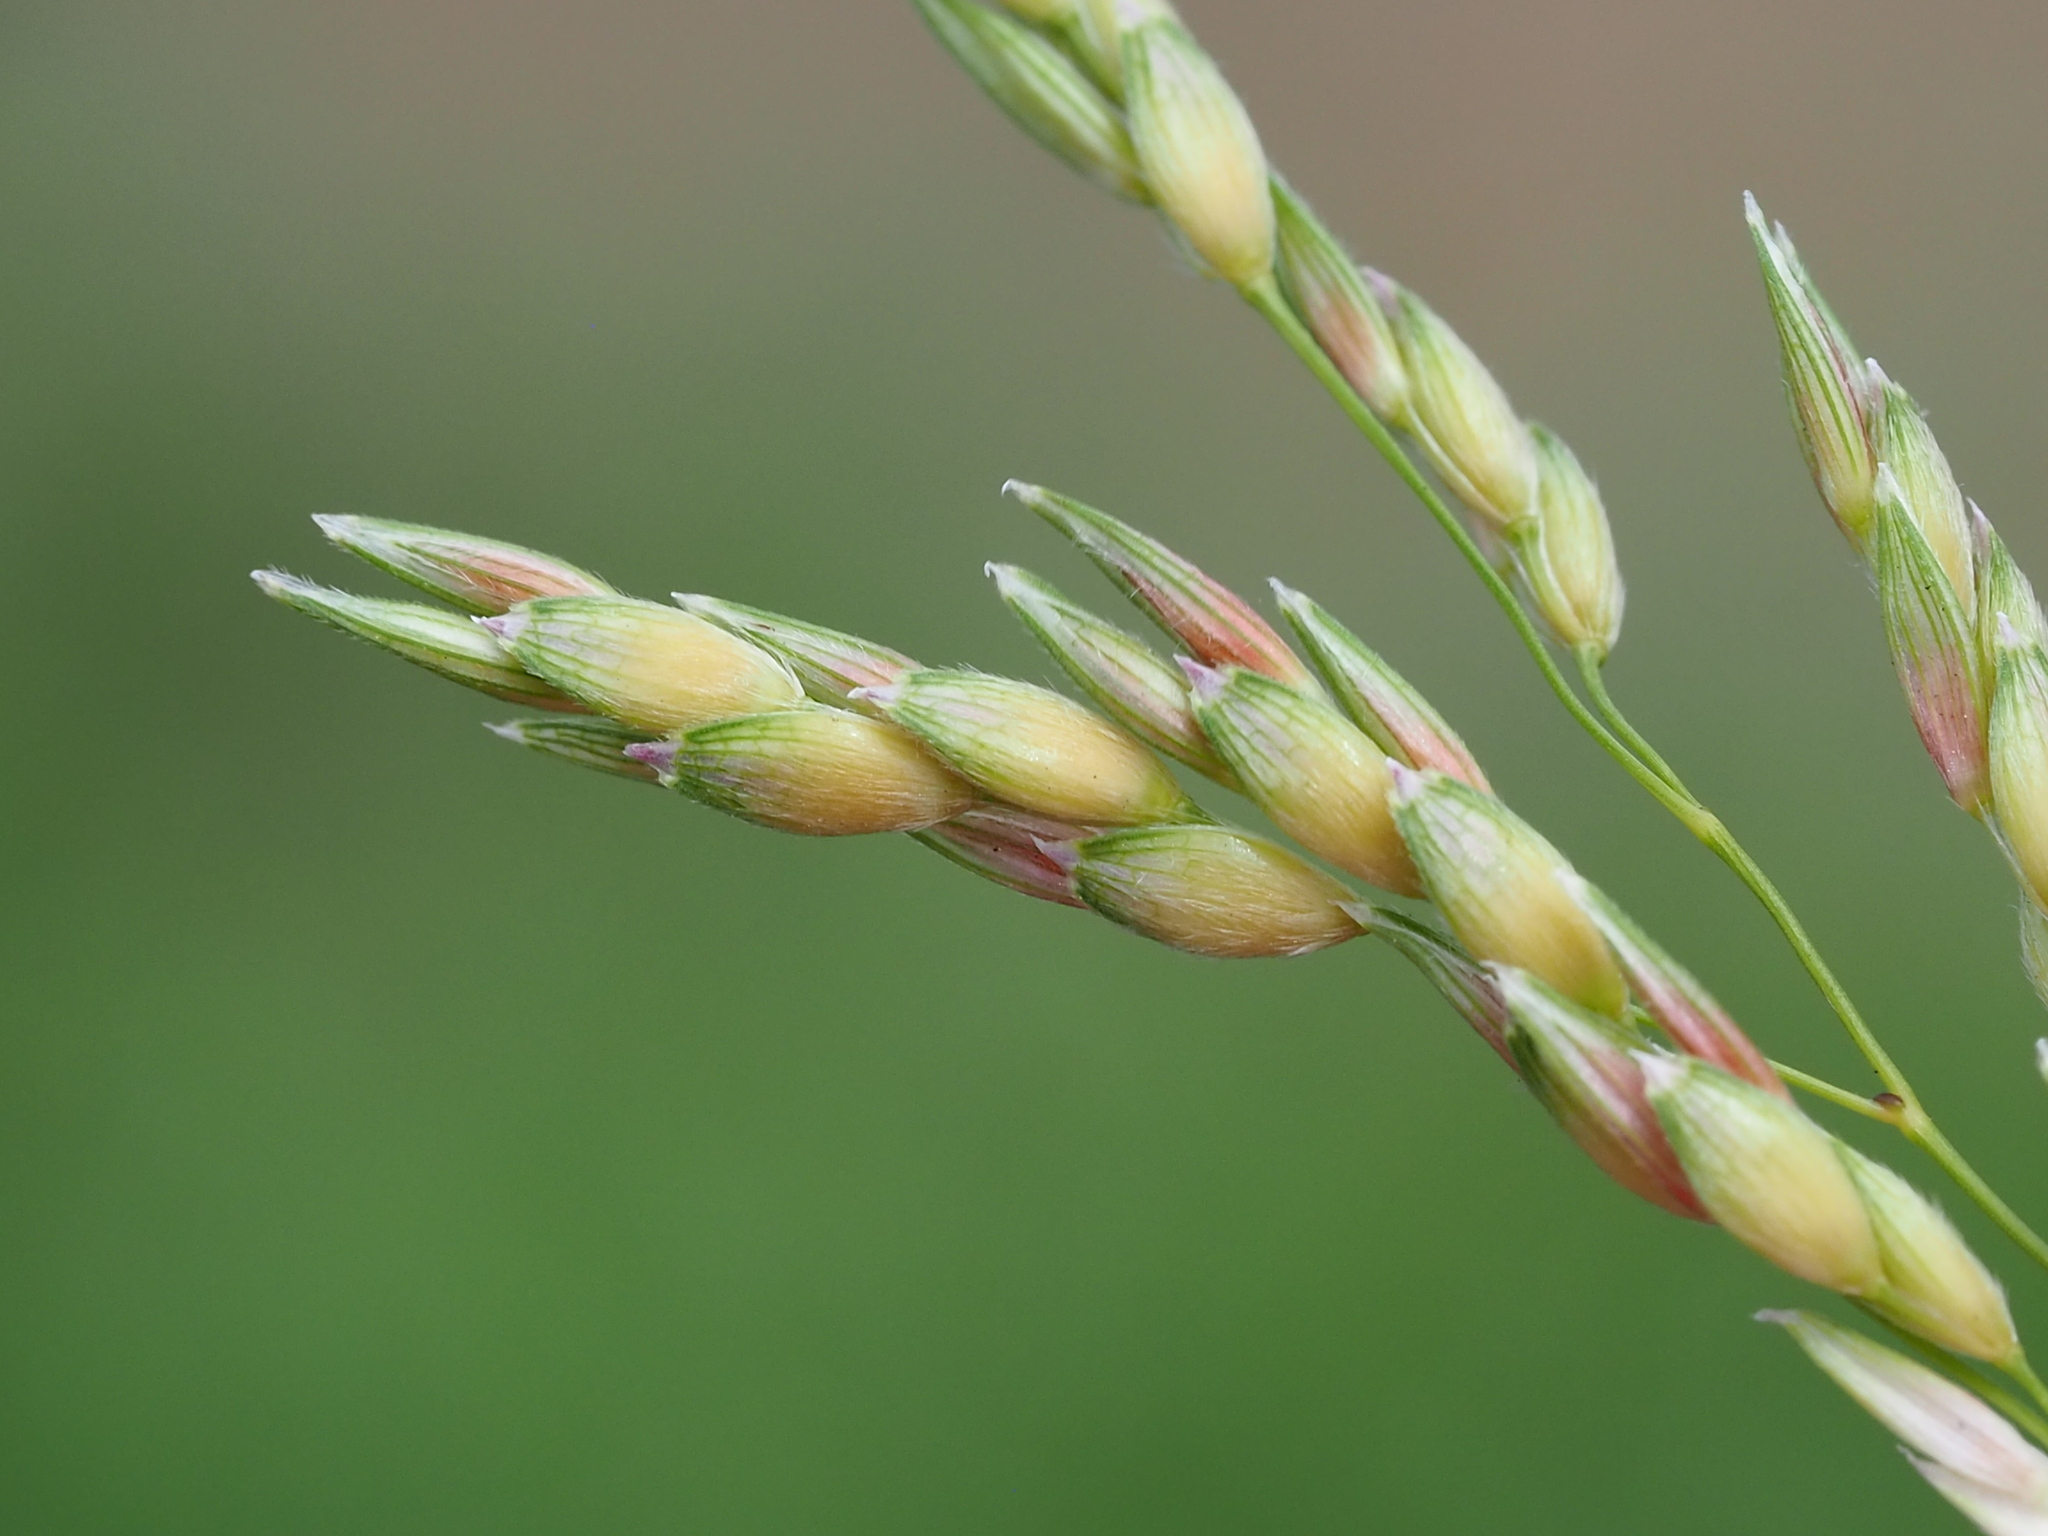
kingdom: Plantae
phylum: Tracheophyta
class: Liliopsida
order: Poales
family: Poaceae
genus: Sorghum
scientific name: Sorghum arundinaceum
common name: Sorghum
